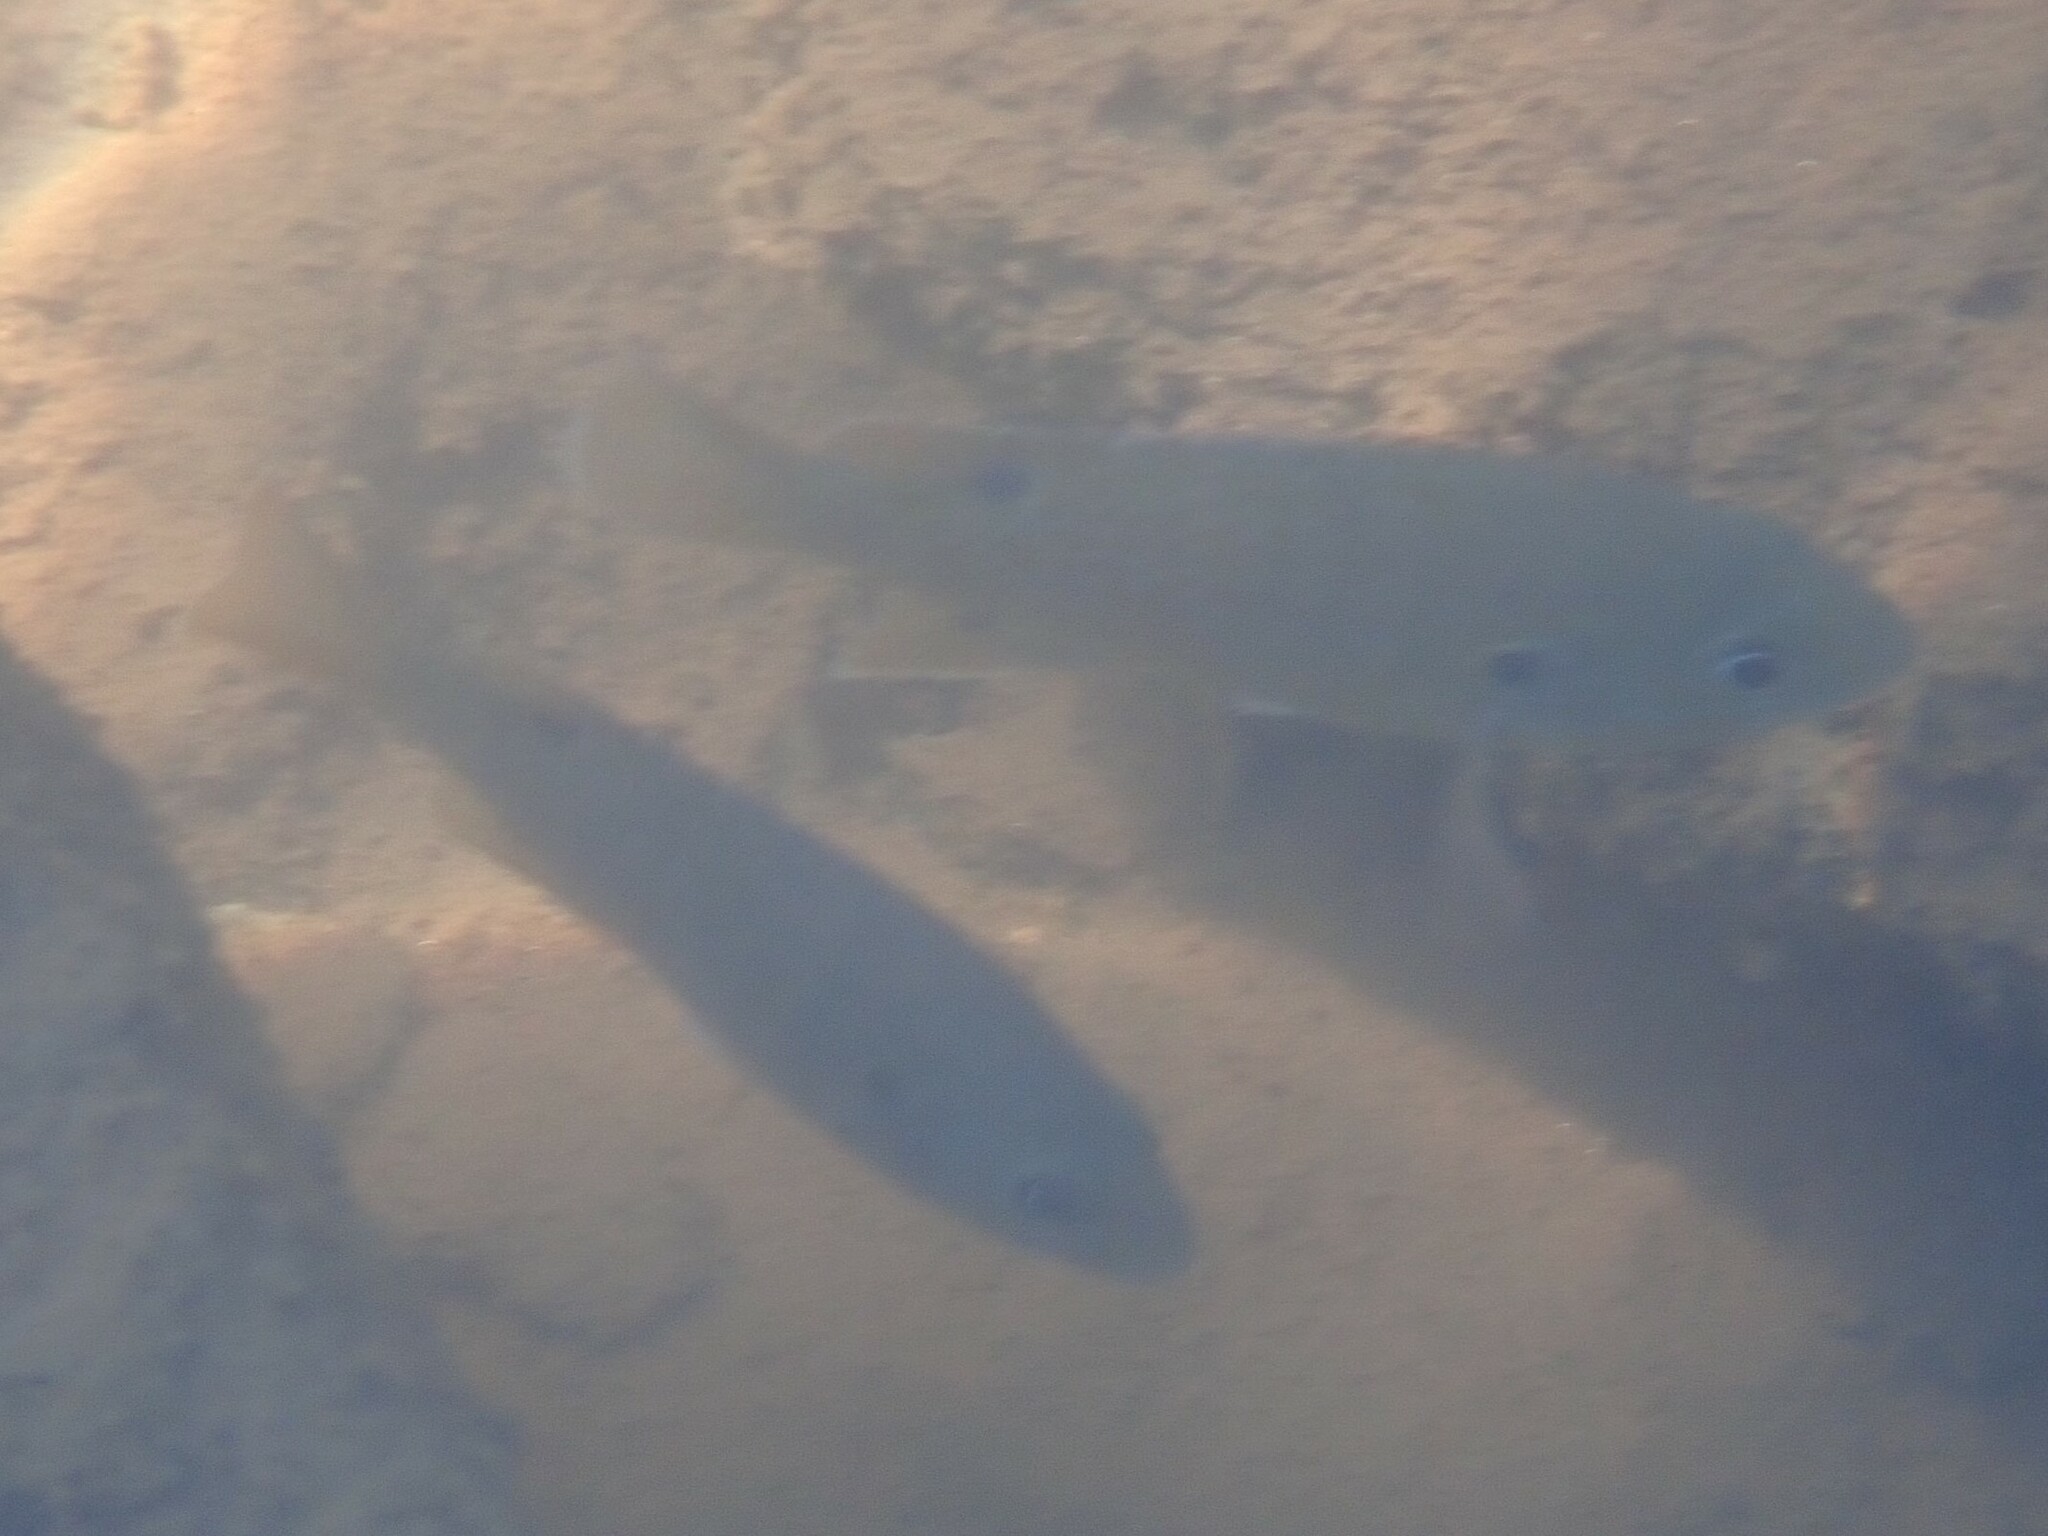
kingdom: Animalia
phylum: Chordata
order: Perciformes
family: Centrarchidae
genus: Lepomis
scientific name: Lepomis cyanellus
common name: Green sunfish
